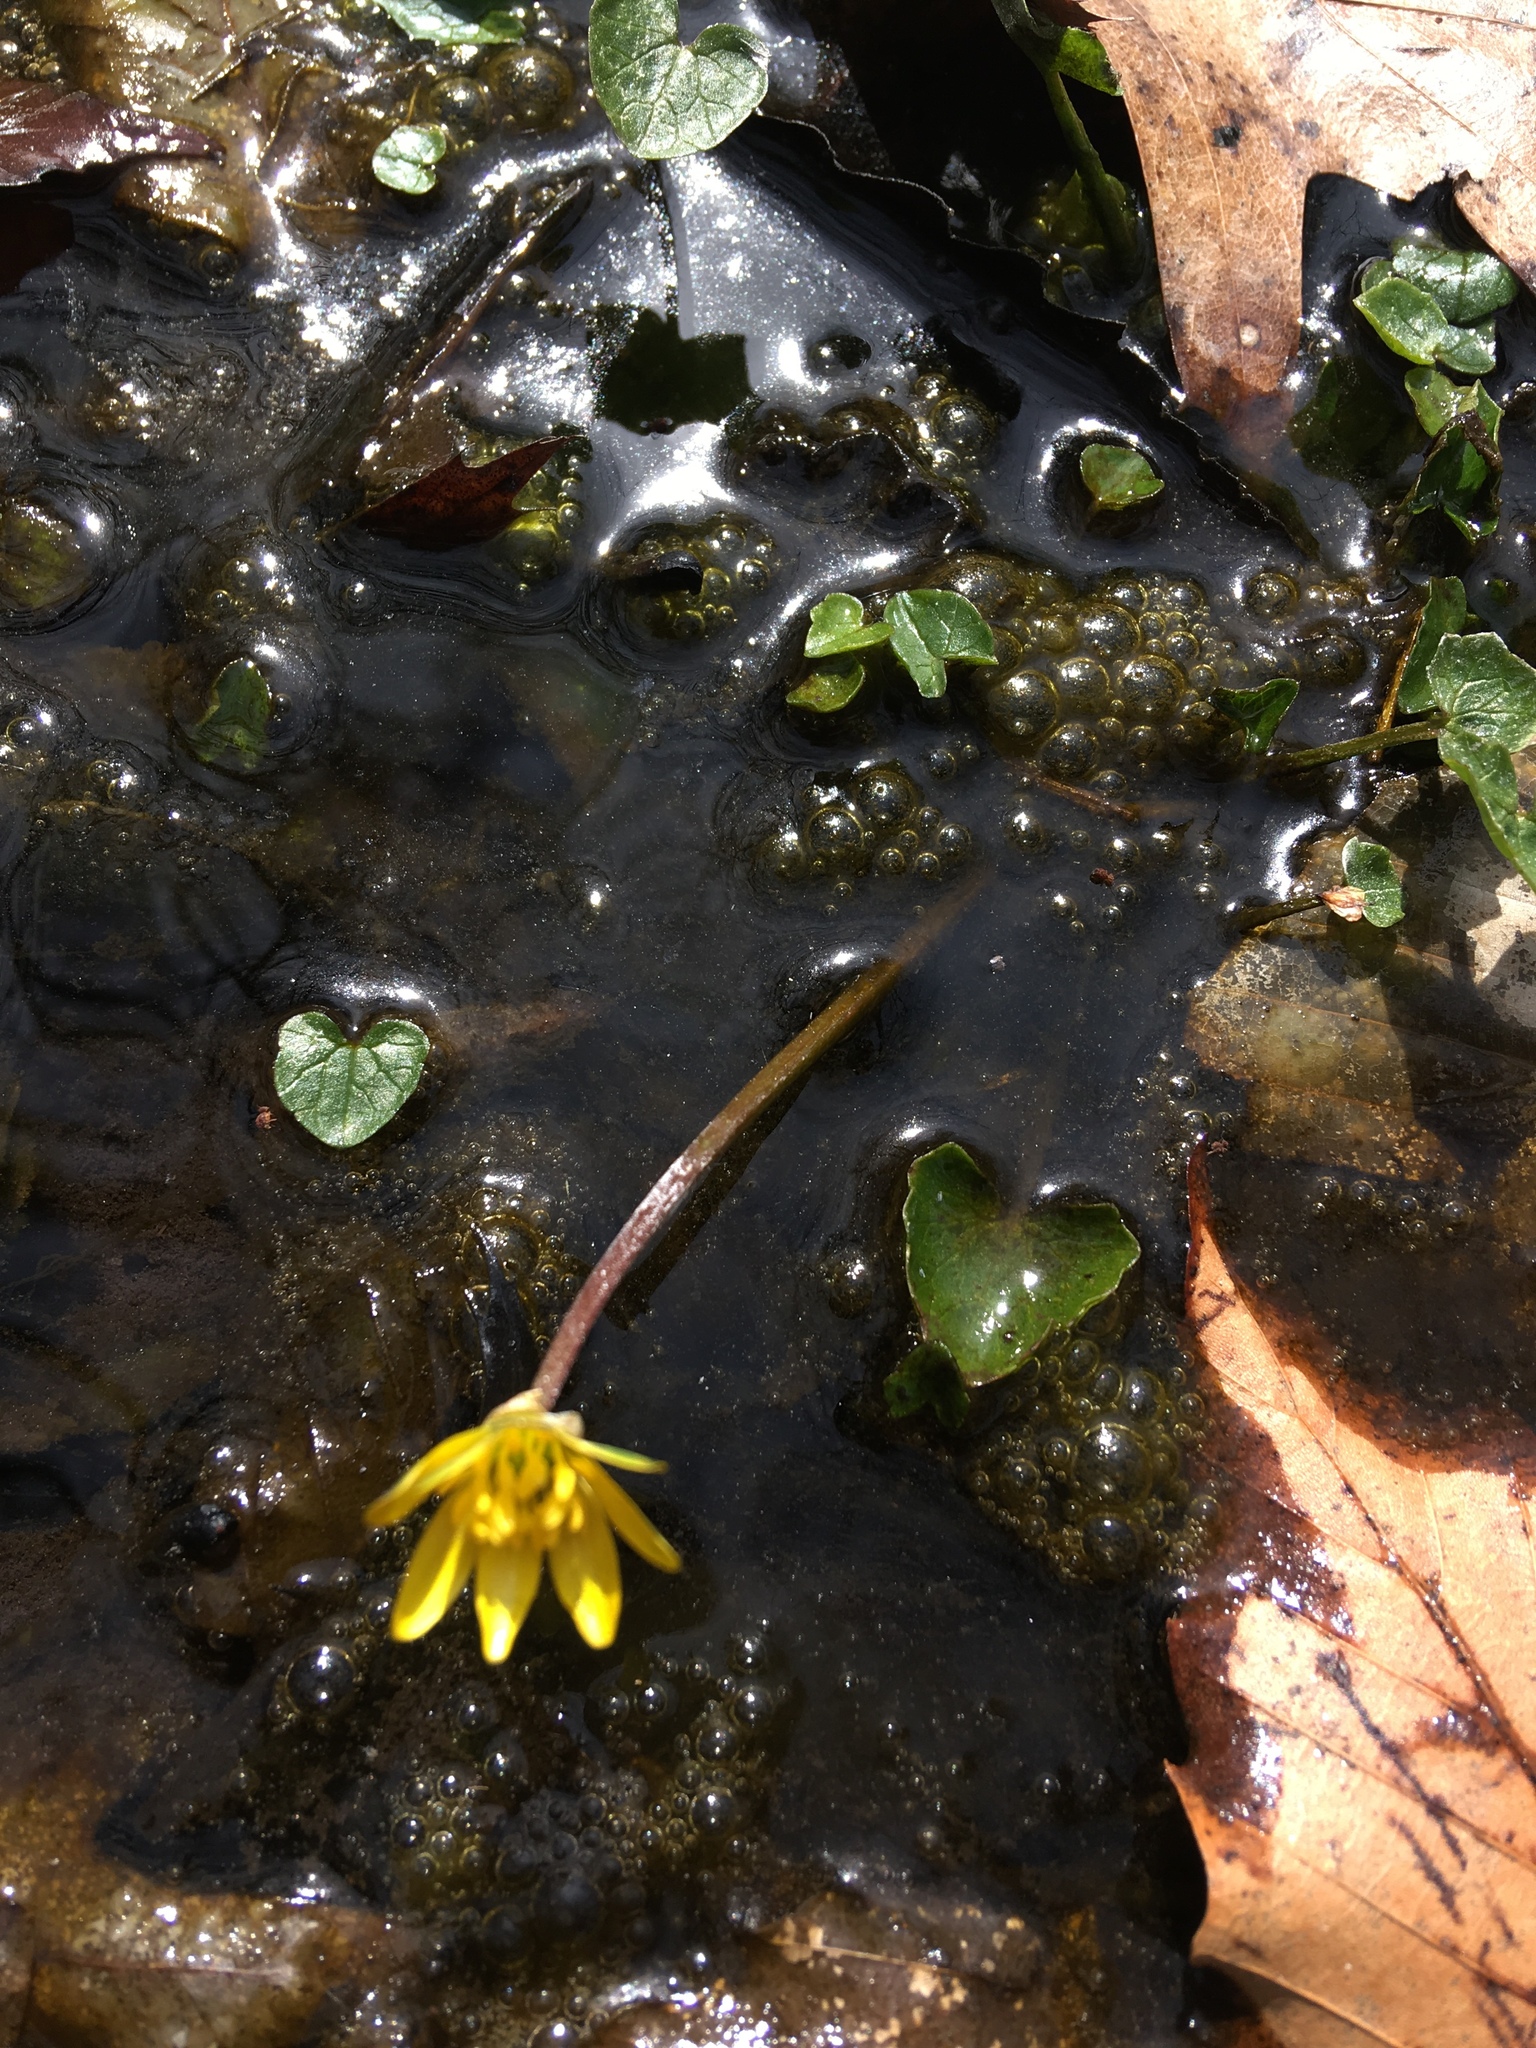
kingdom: Plantae
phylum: Tracheophyta
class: Magnoliopsida
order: Ranunculales
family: Ranunculaceae
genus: Ficaria
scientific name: Ficaria verna
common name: Lesser celandine
